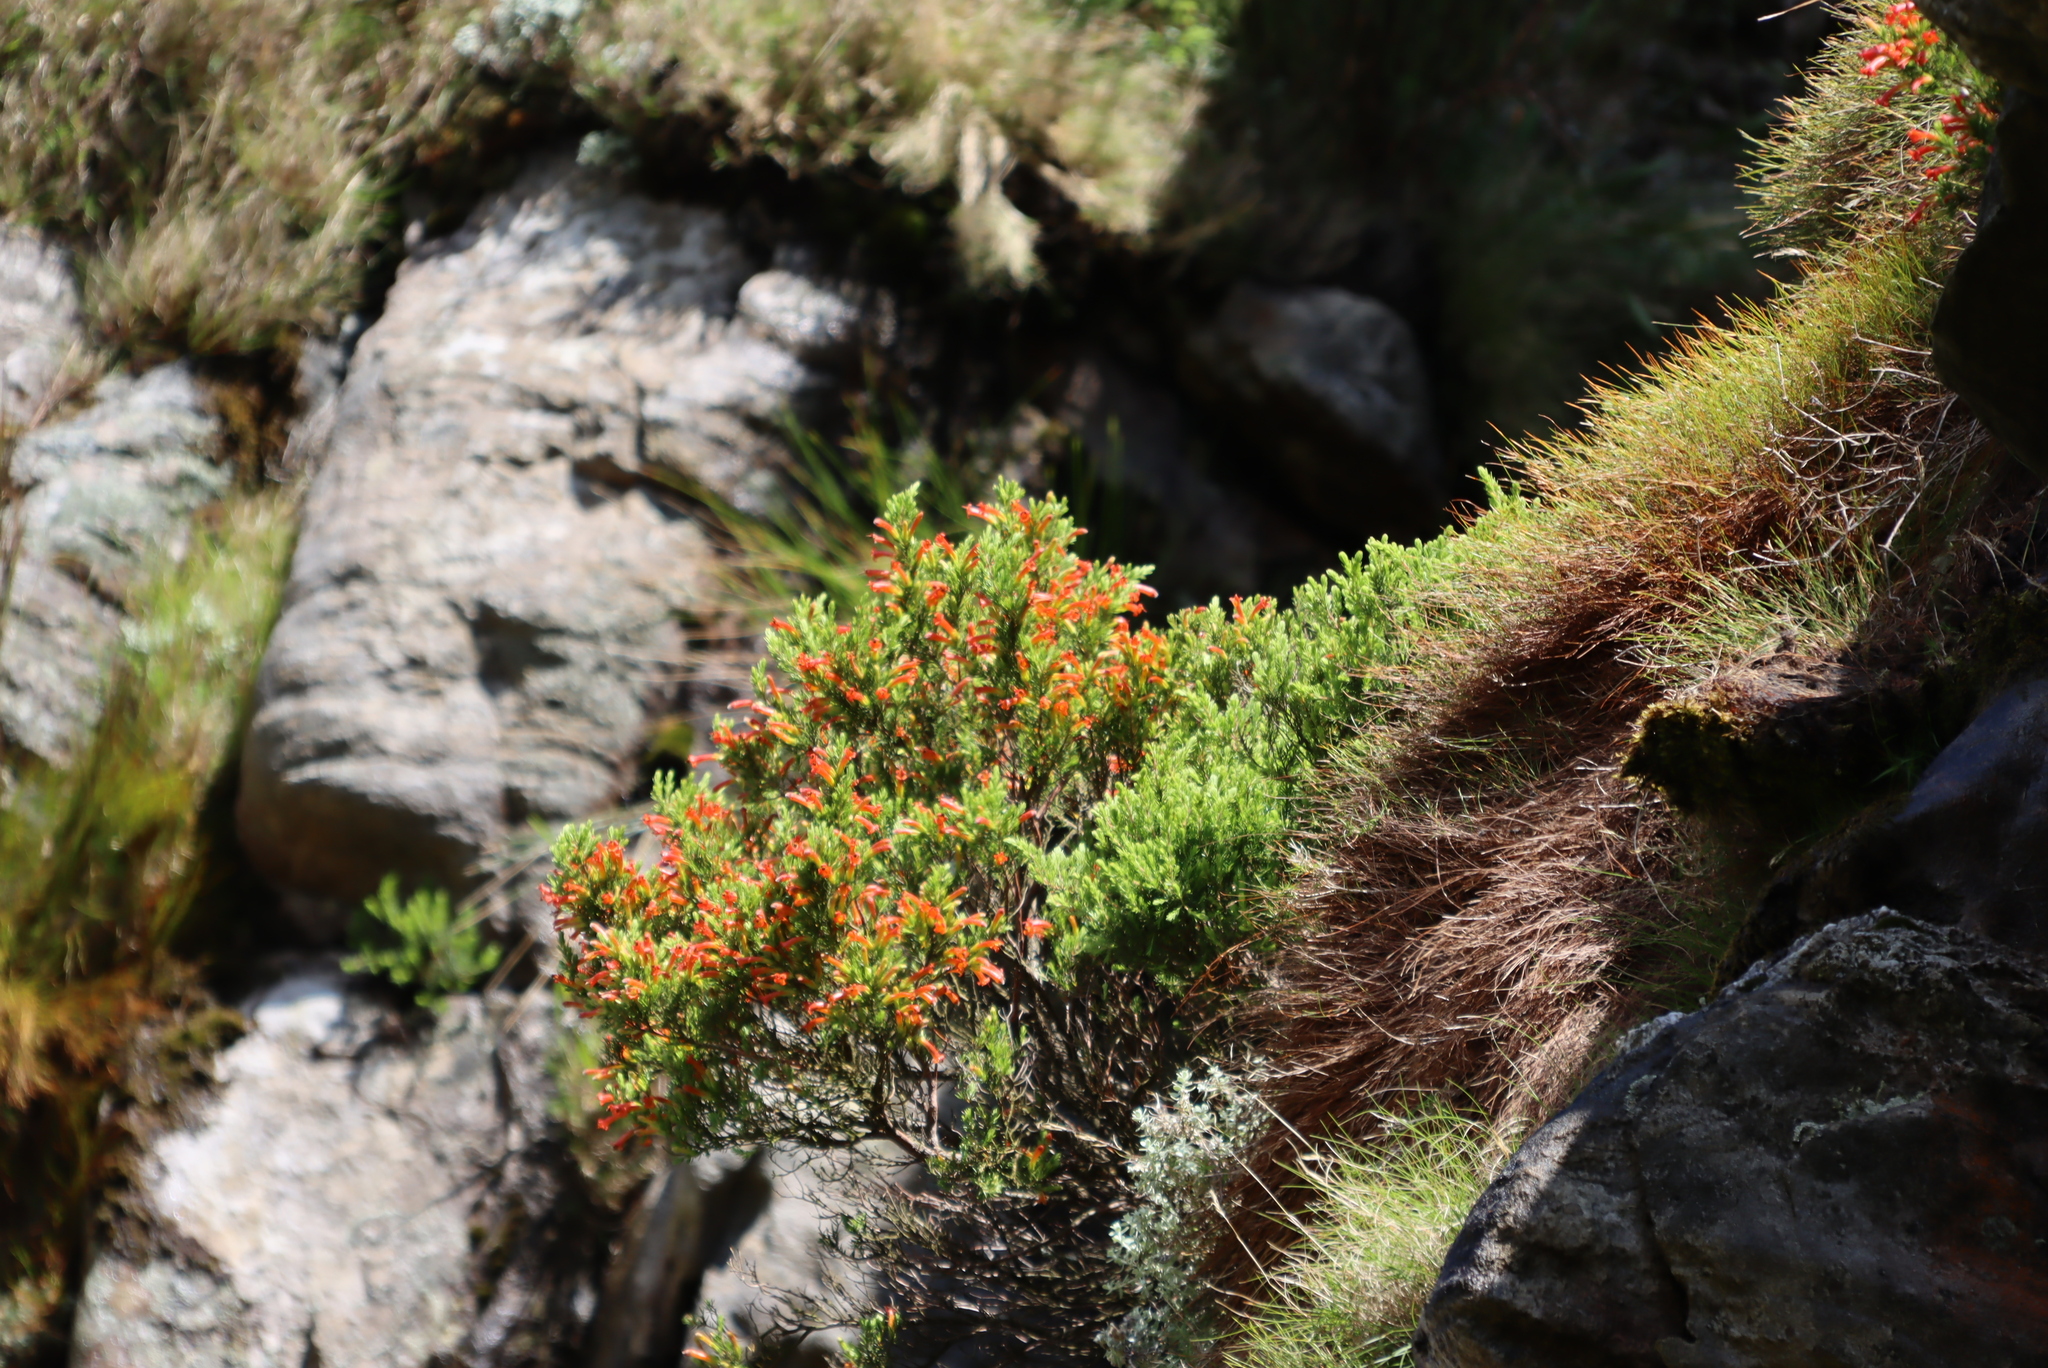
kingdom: Plantae
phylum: Tracheophyta
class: Magnoliopsida
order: Ericales
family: Ericaceae
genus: Erica
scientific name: Erica grandiflora
